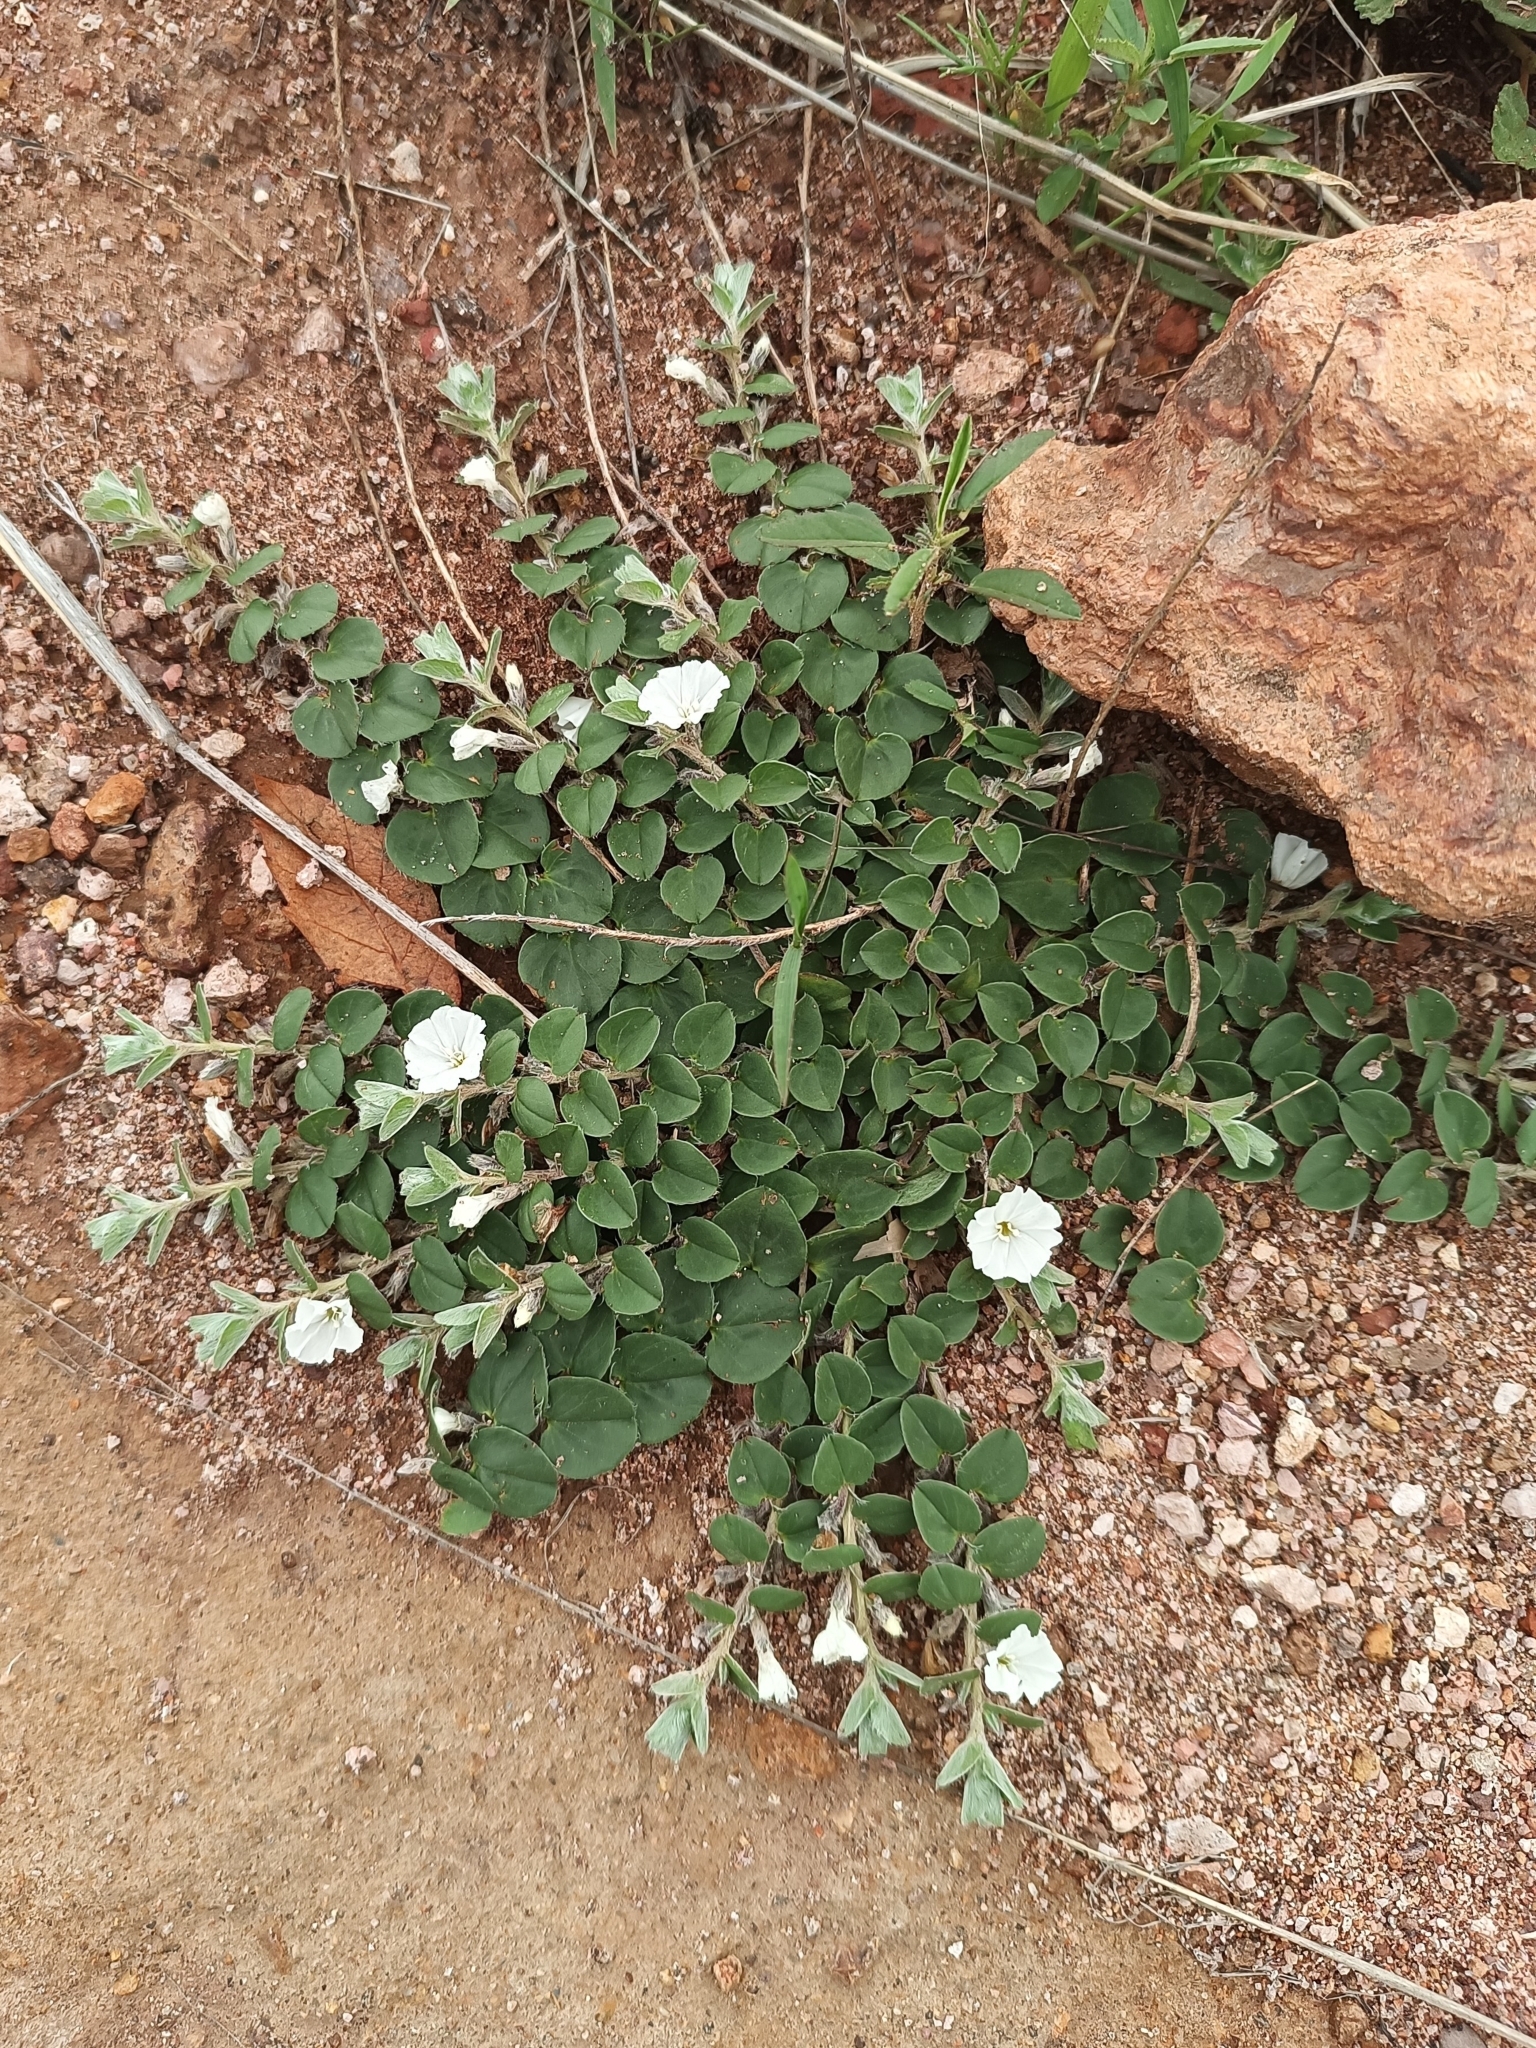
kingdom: Plantae
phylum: Tracheophyta
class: Magnoliopsida
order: Solanales
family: Convolvulaceae
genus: Evolvulus
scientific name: Evolvulus prostratus
